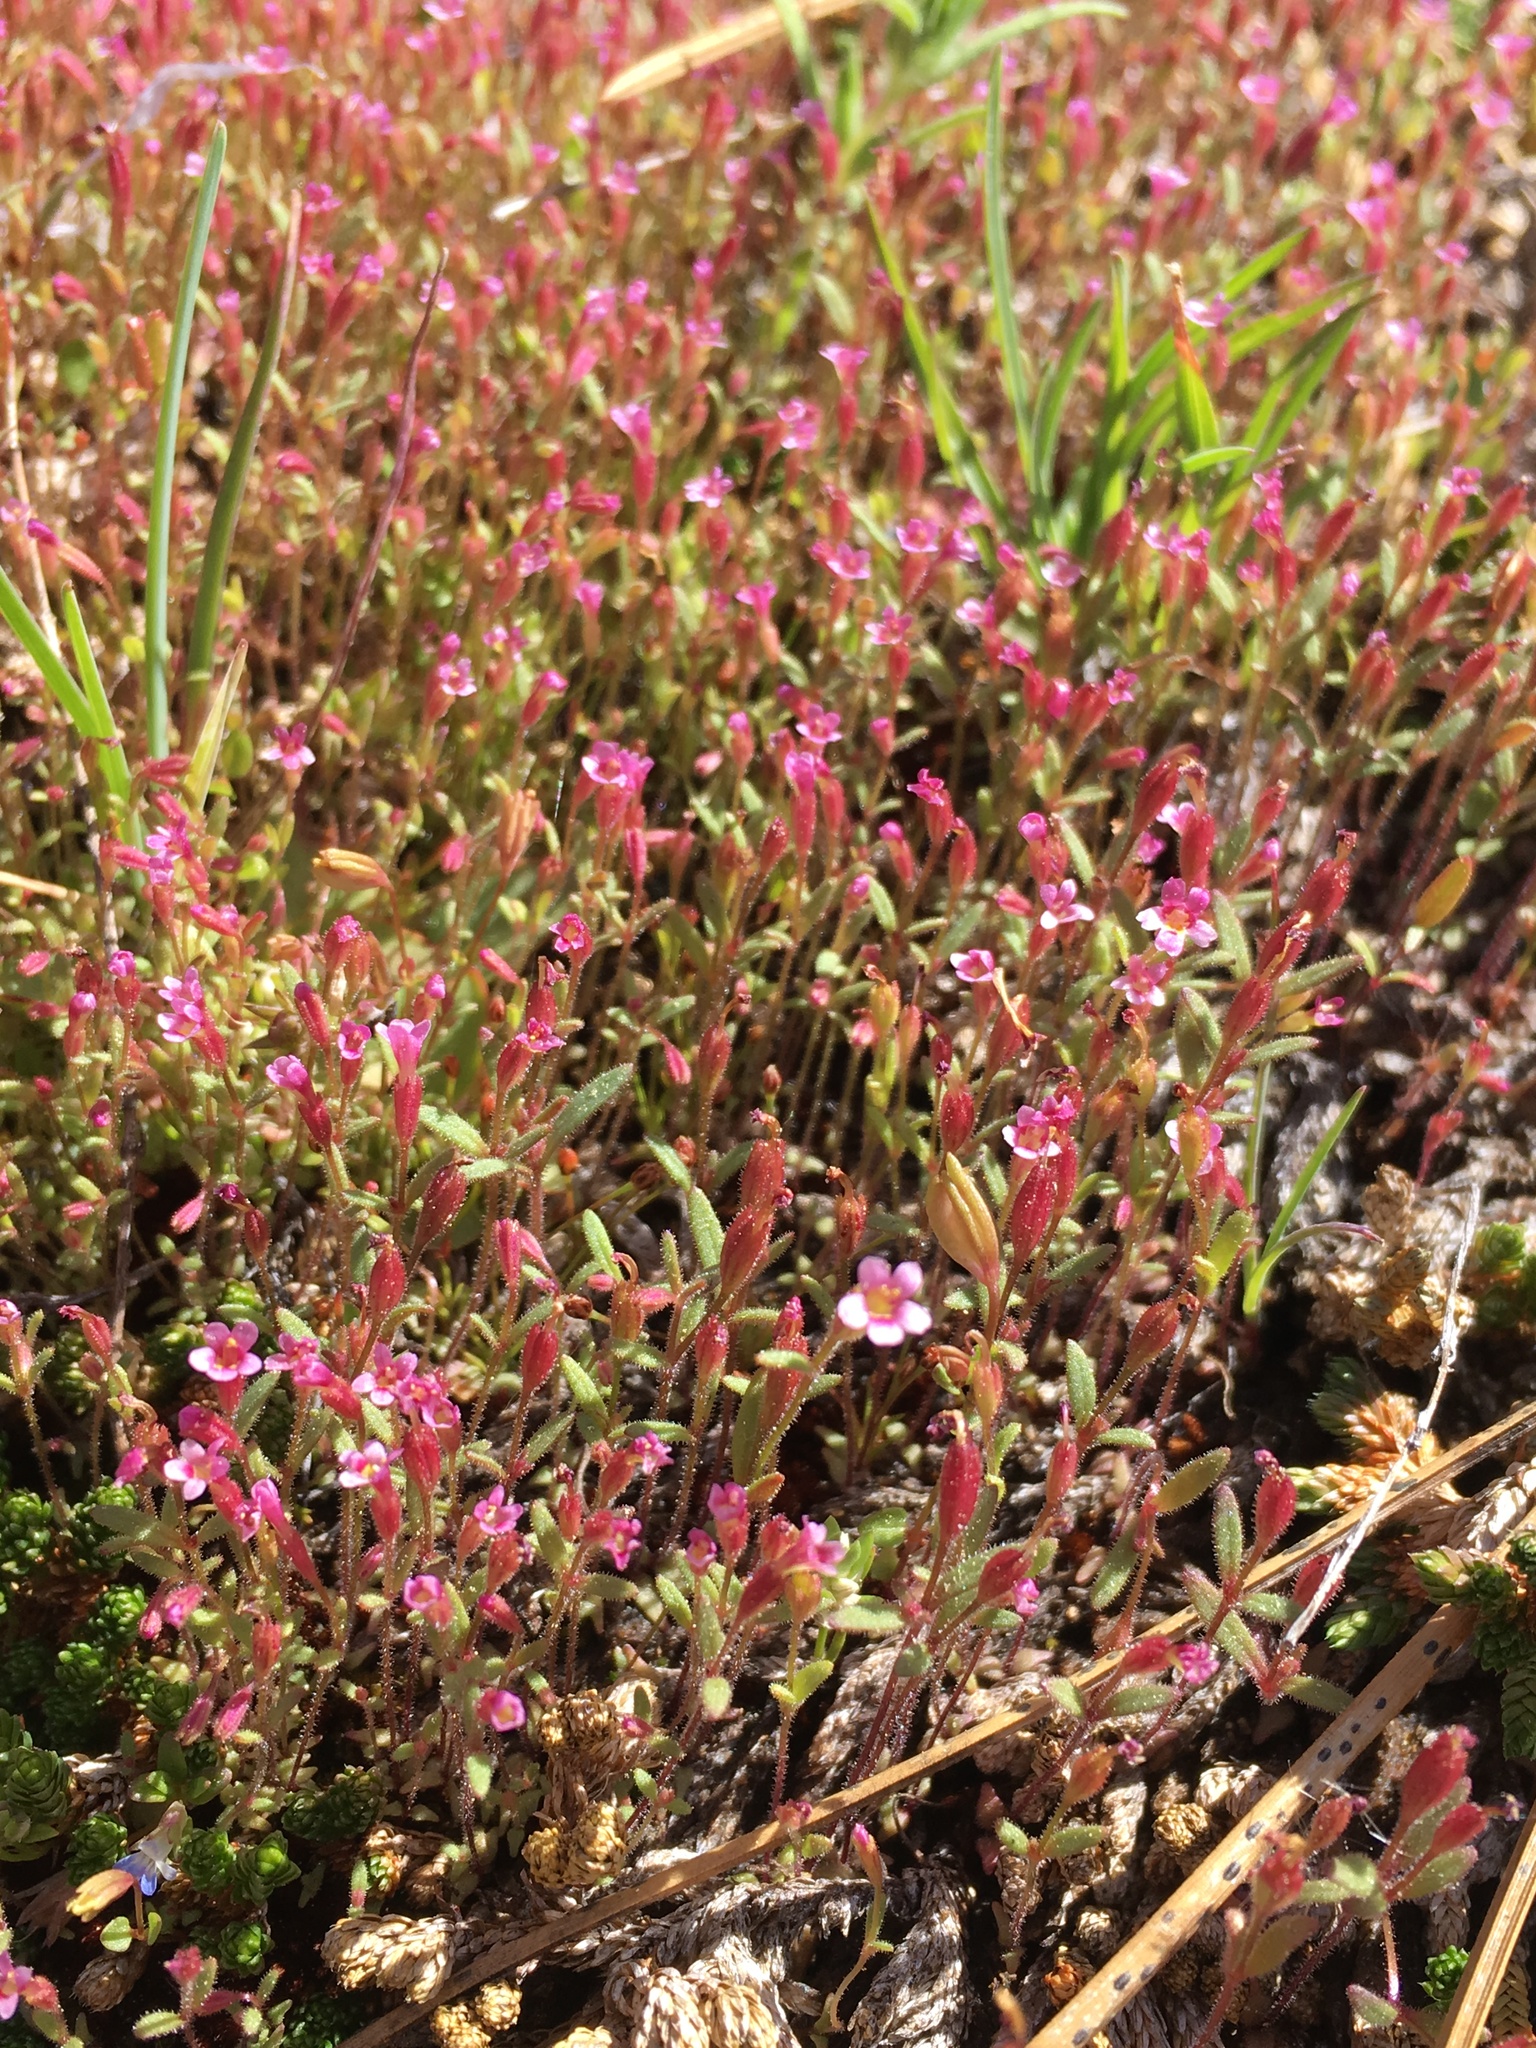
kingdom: Plantae
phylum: Tracheophyta
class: Magnoliopsida
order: Lamiales
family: Phrymaceae
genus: Erythranthe
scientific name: Erythranthe breweri
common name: Brewer's monkeyflower
